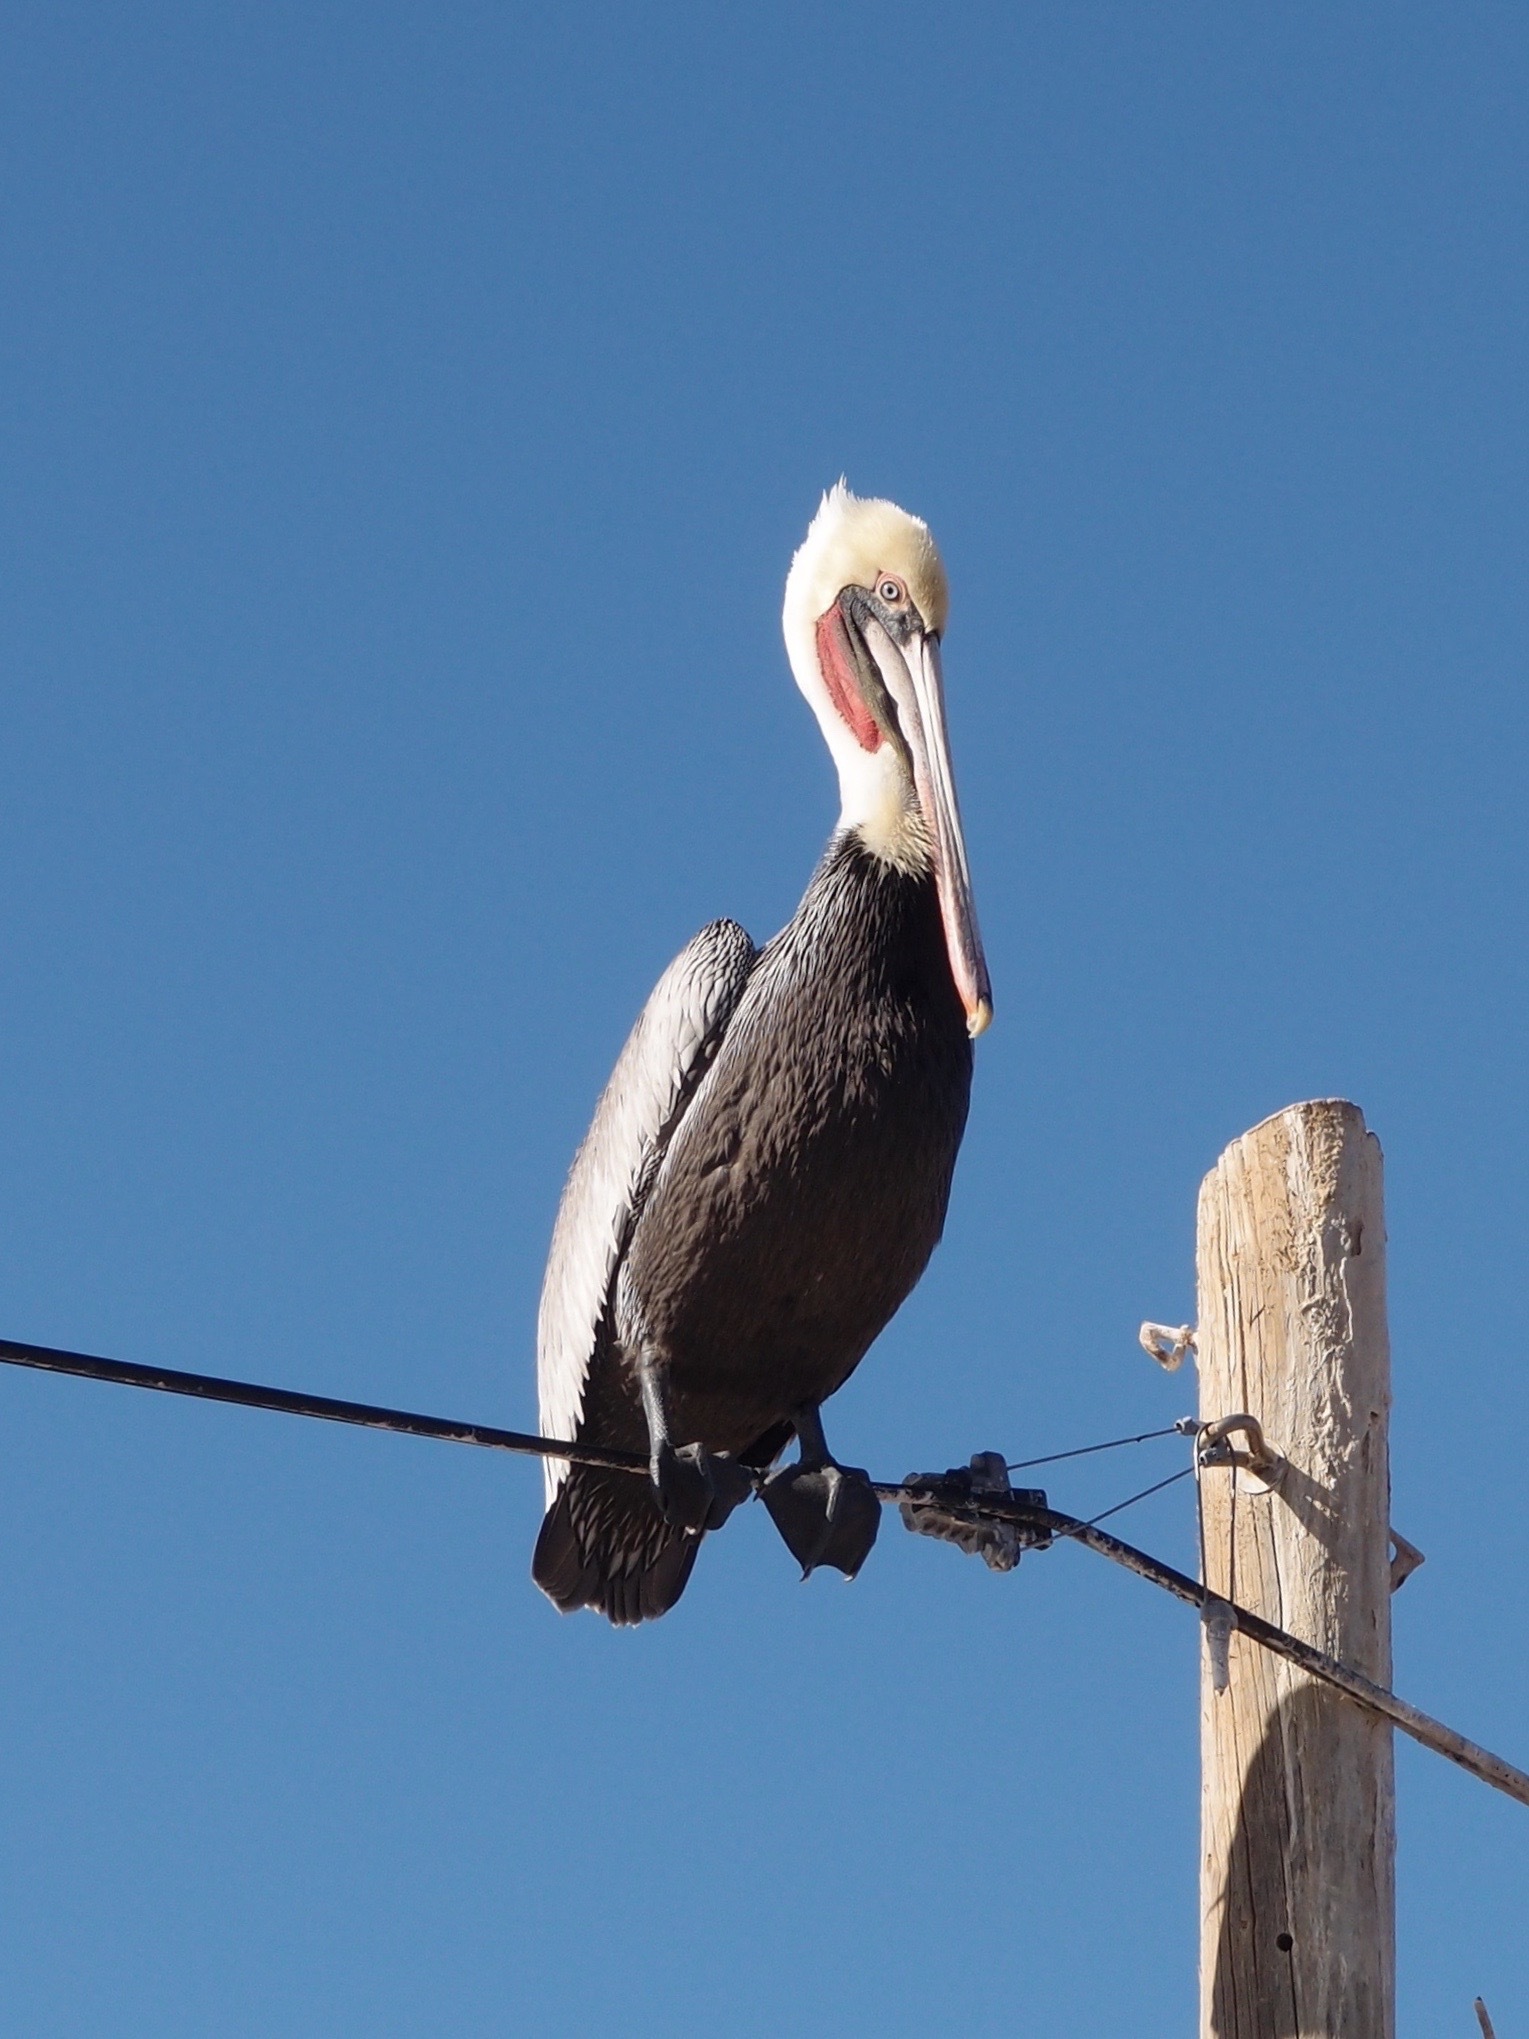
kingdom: Animalia
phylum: Chordata
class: Aves
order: Pelecaniformes
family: Pelecanidae
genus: Pelecanus
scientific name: Pelecanus occidentalis
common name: Brown pelican
